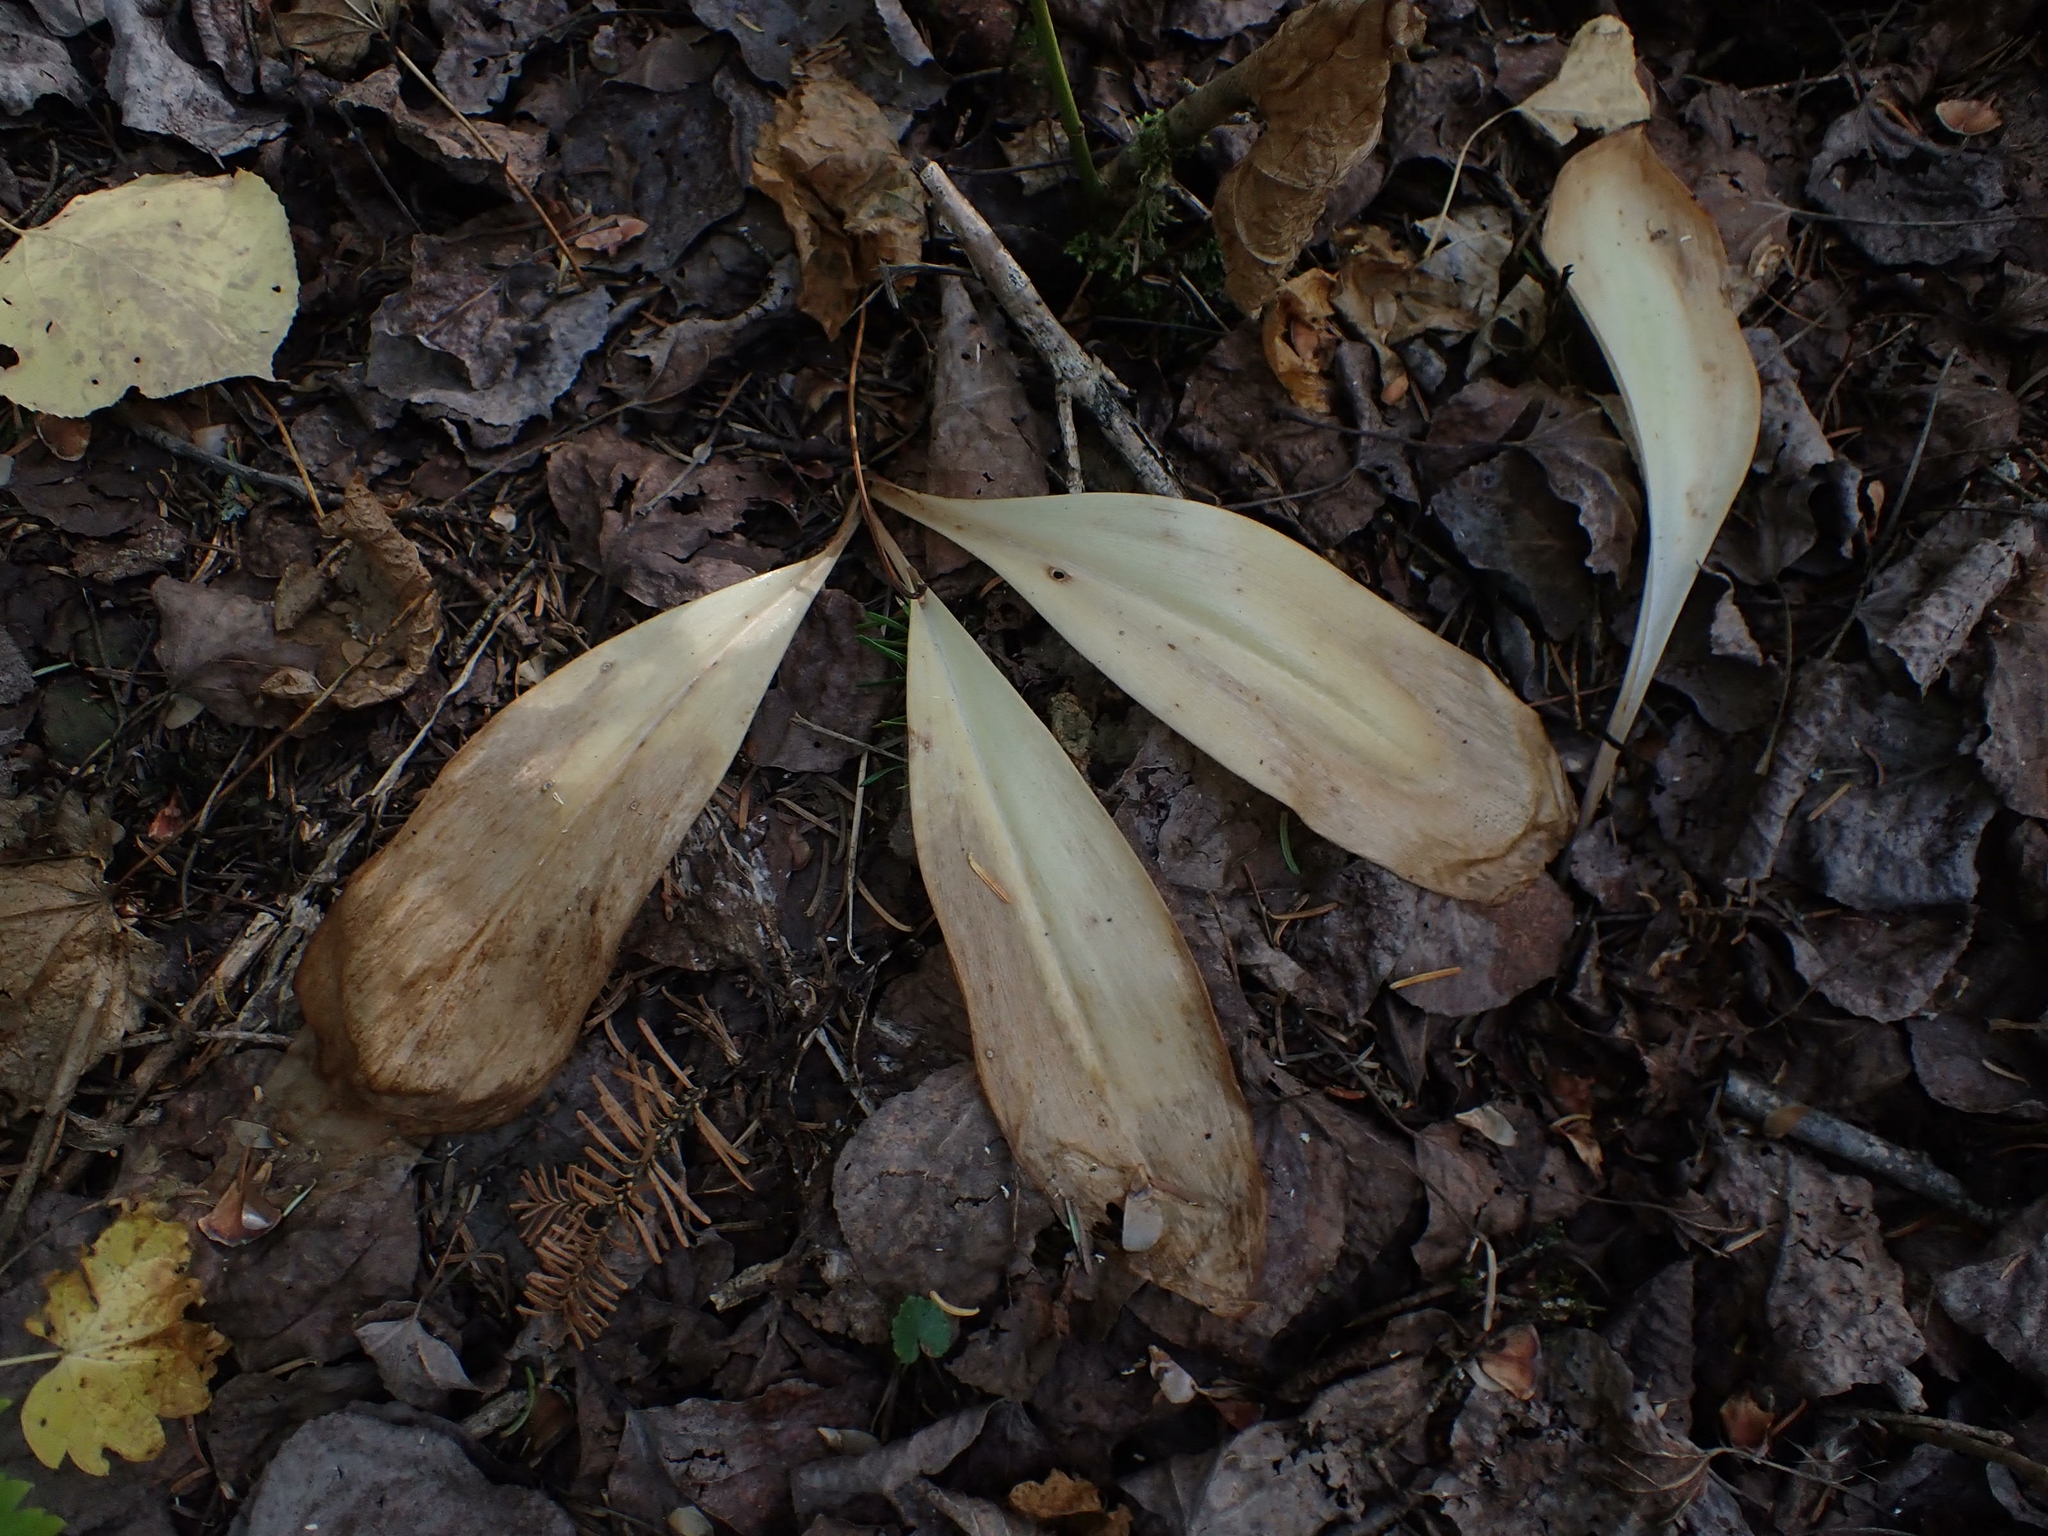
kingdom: Plantae
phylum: Tracheophyta
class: Liliopsida
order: Liliales
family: Liliaceae
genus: Clintonia
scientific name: Clintonia borealis
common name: Yellow clintonia
